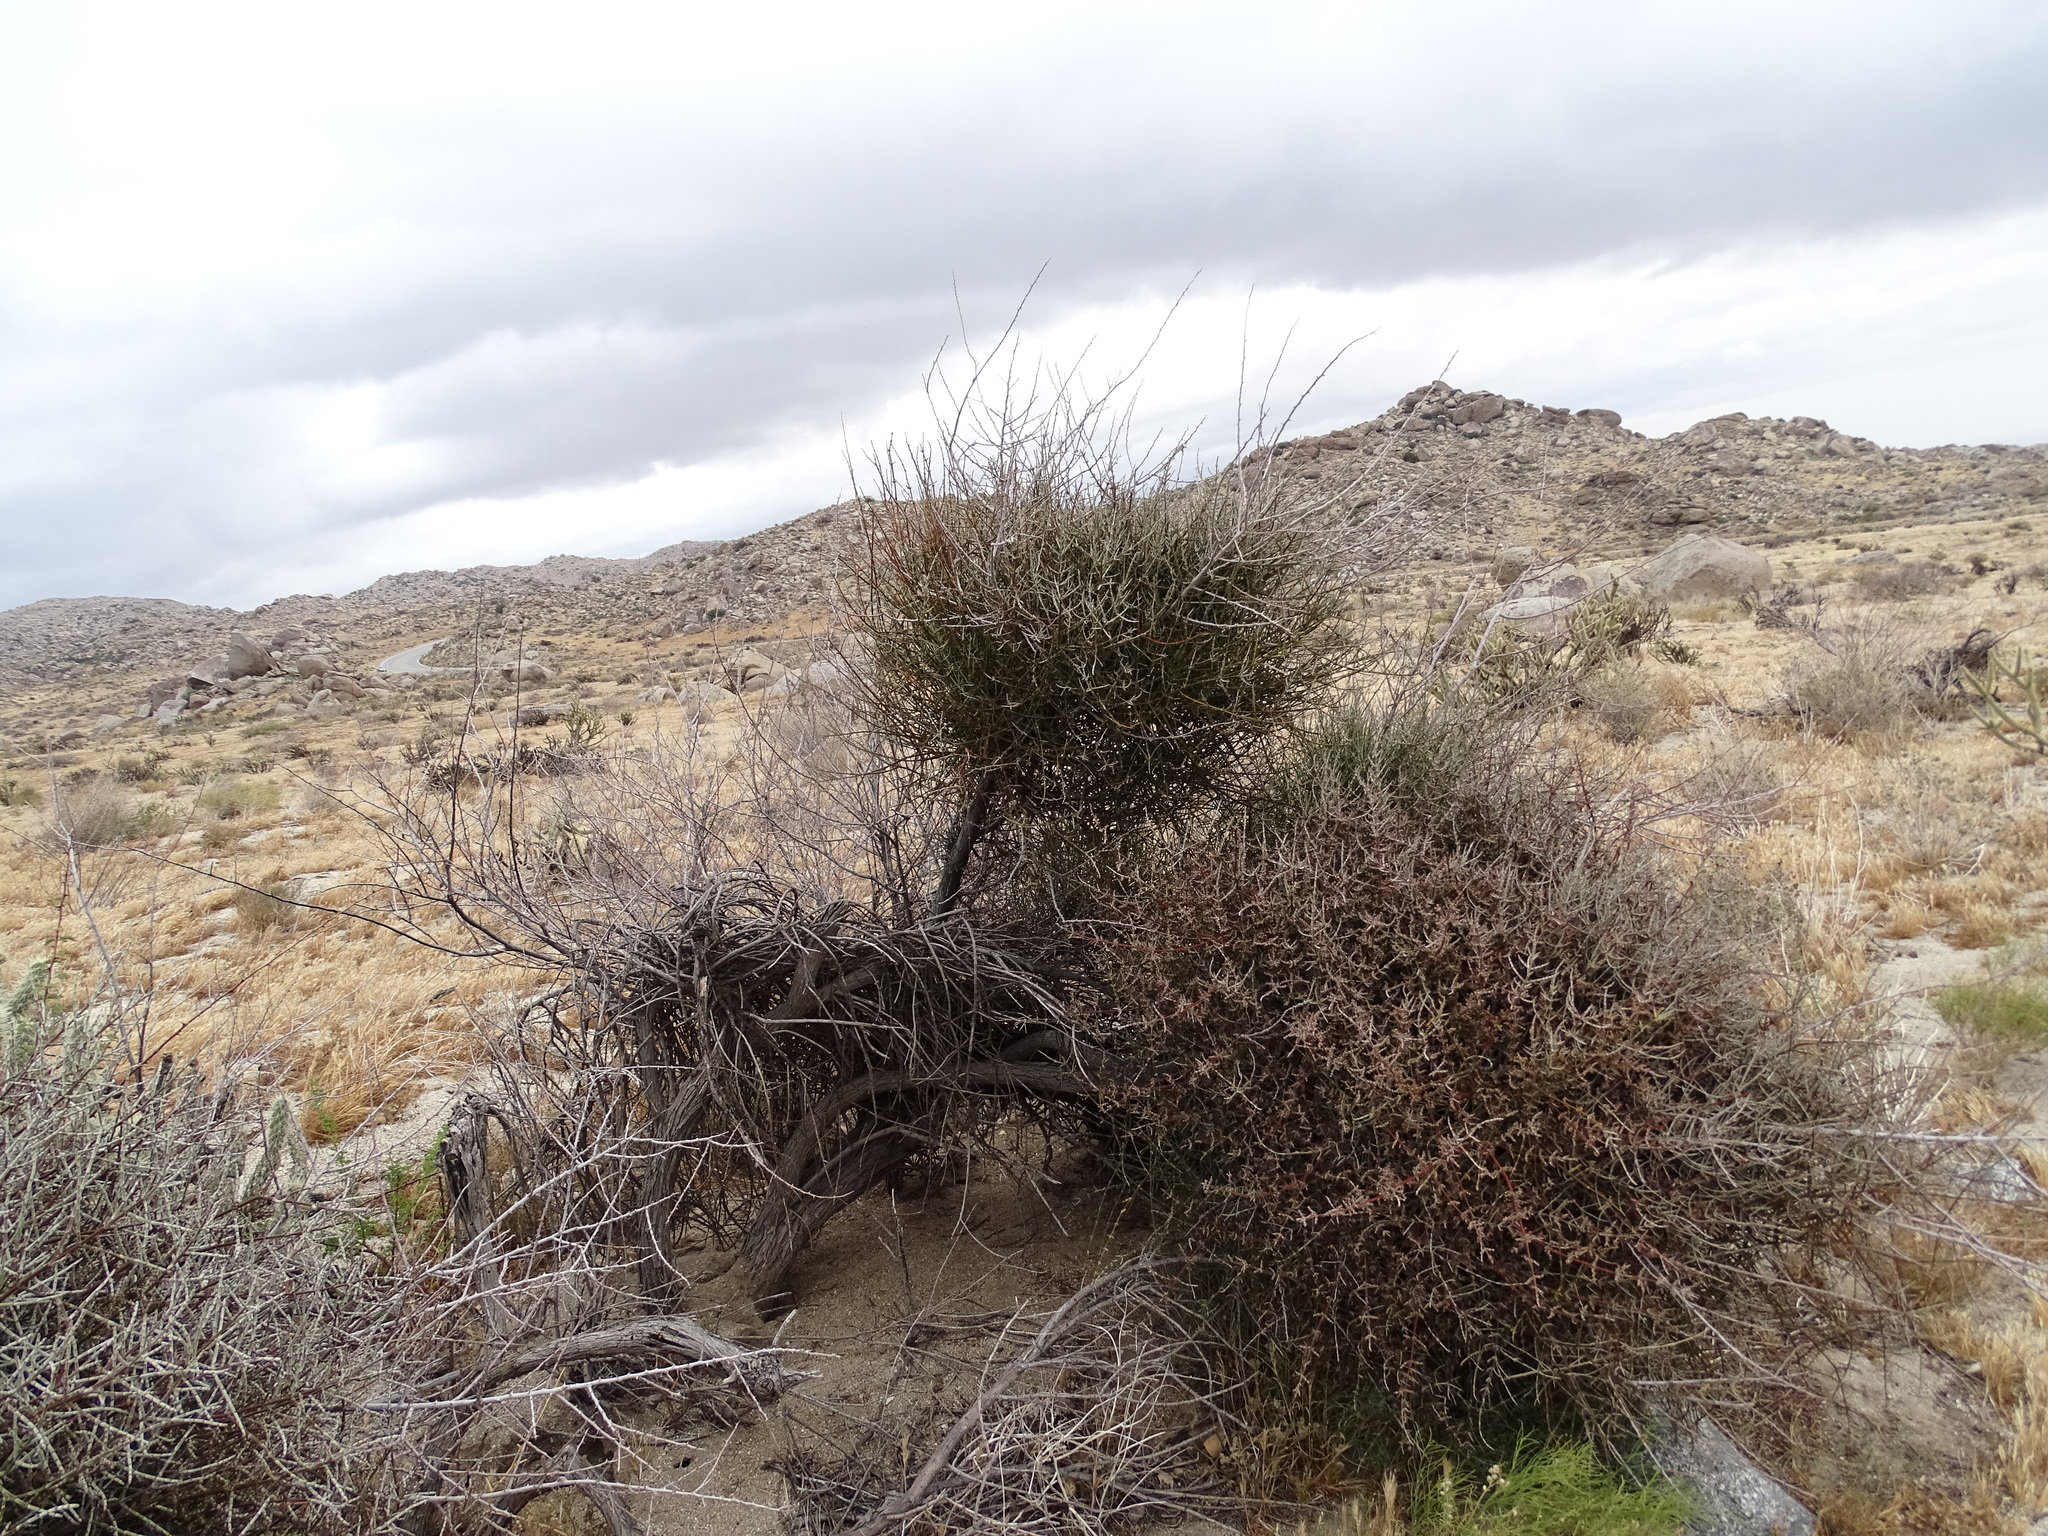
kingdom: Plantae
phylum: Tracheophyta
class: Magnoliopsida
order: Santalales
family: Viscaceae
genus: Phoradendron
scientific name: Phoradendron californicum
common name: Acacia mistletoe
